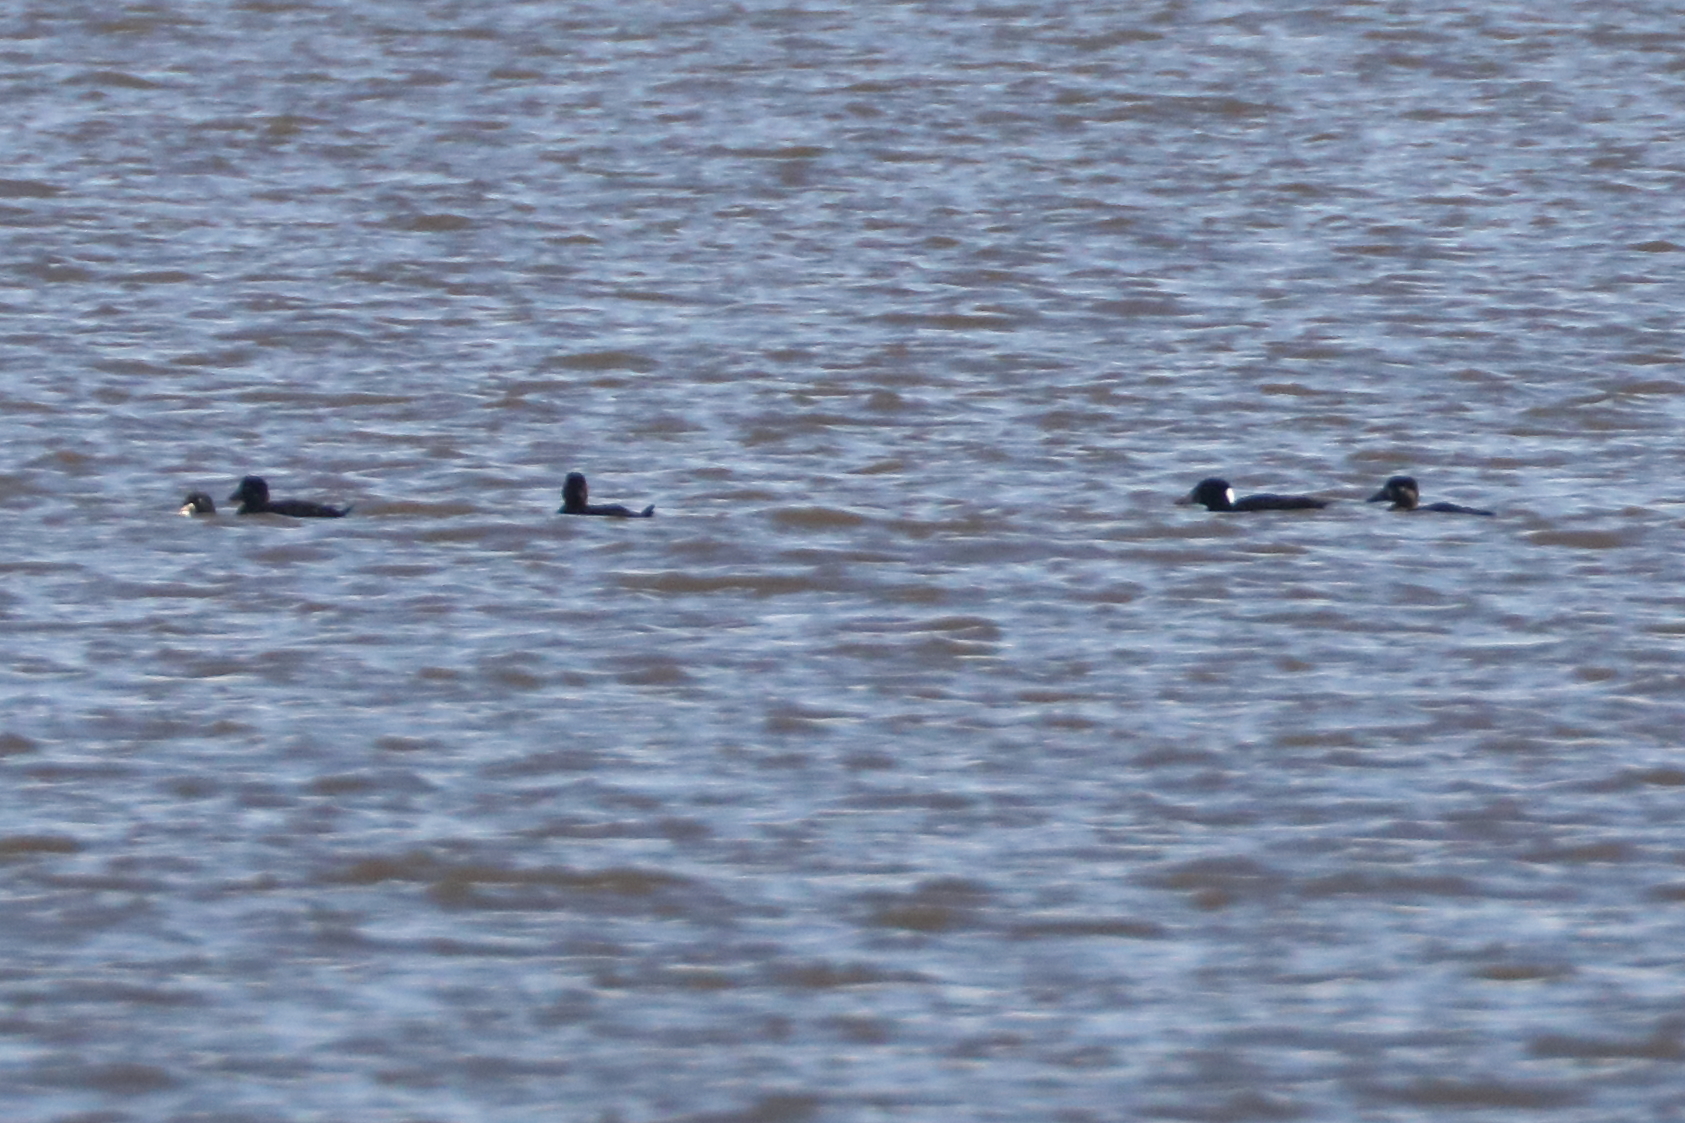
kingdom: Animalia
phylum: Chordata
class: Aves
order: Anseriformes
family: Anatidae
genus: Melanitta
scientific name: Melanitta perspicillata
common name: Surf scoter
